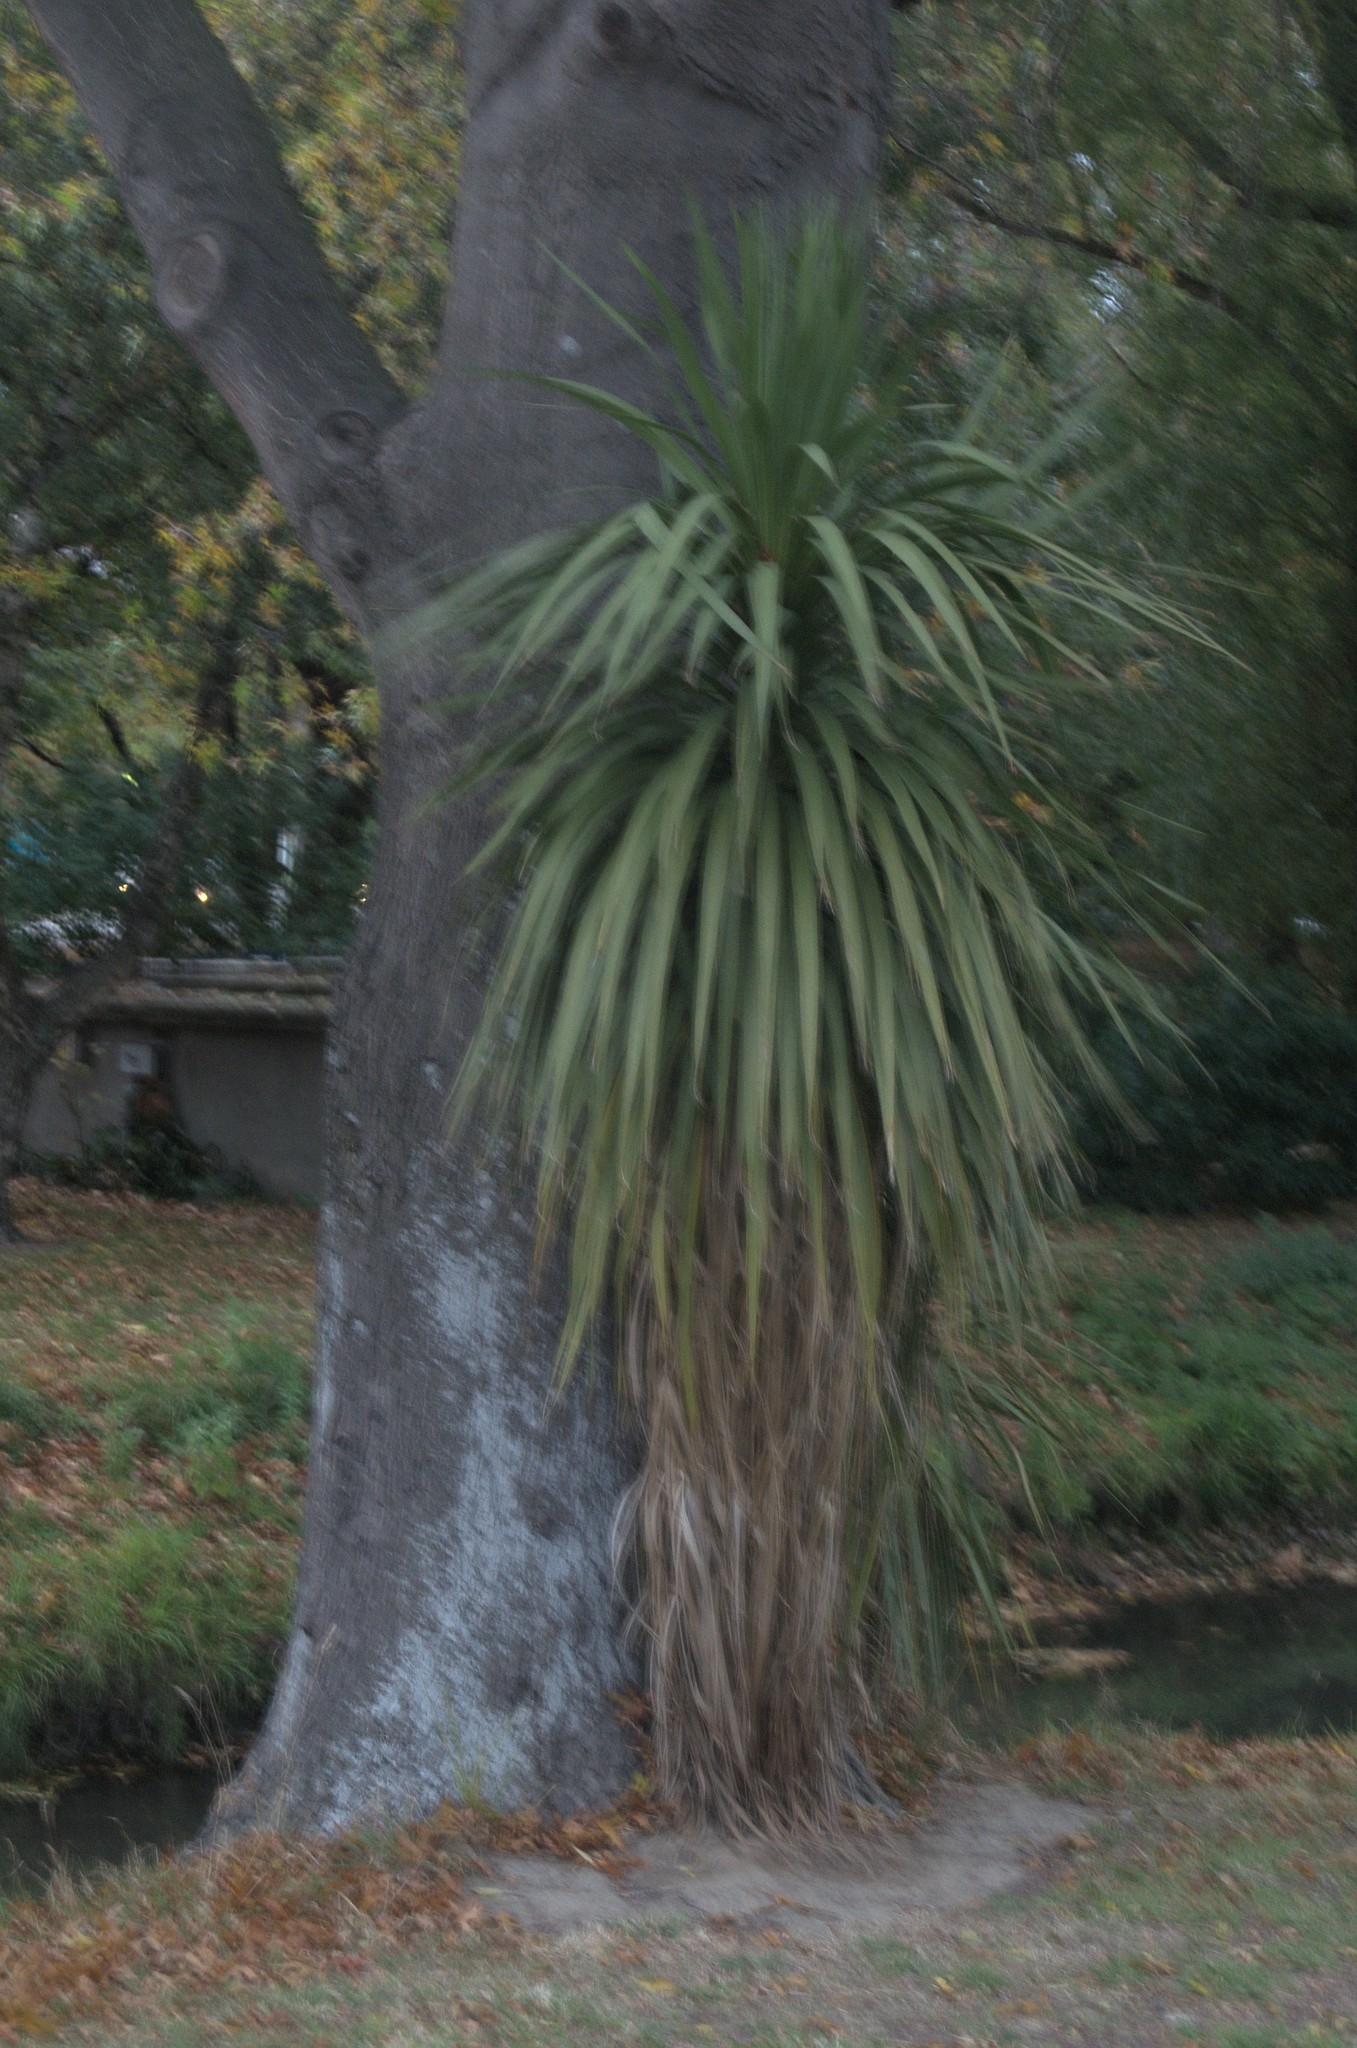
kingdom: Plantae
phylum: Tracheophyta
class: Liliopsida
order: Asparagales
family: Asparagaceae
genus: Cordyline
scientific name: Cordyline australis
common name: Cabbage-palm
